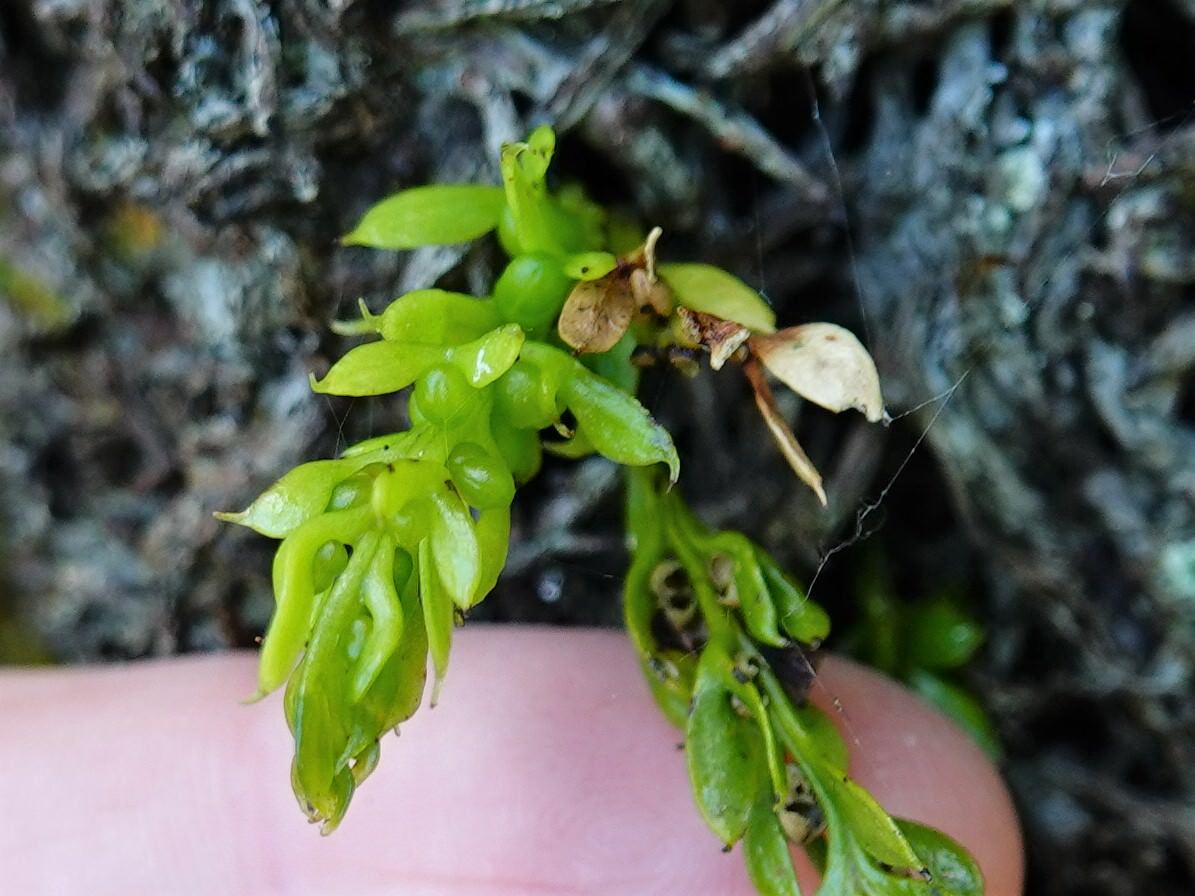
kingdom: Plantae
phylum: Tracheophyta
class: Polypodiopsida
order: Psilotales
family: Psilotaceae
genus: Tmesipteris
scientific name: Tmesipteris lanceolata
